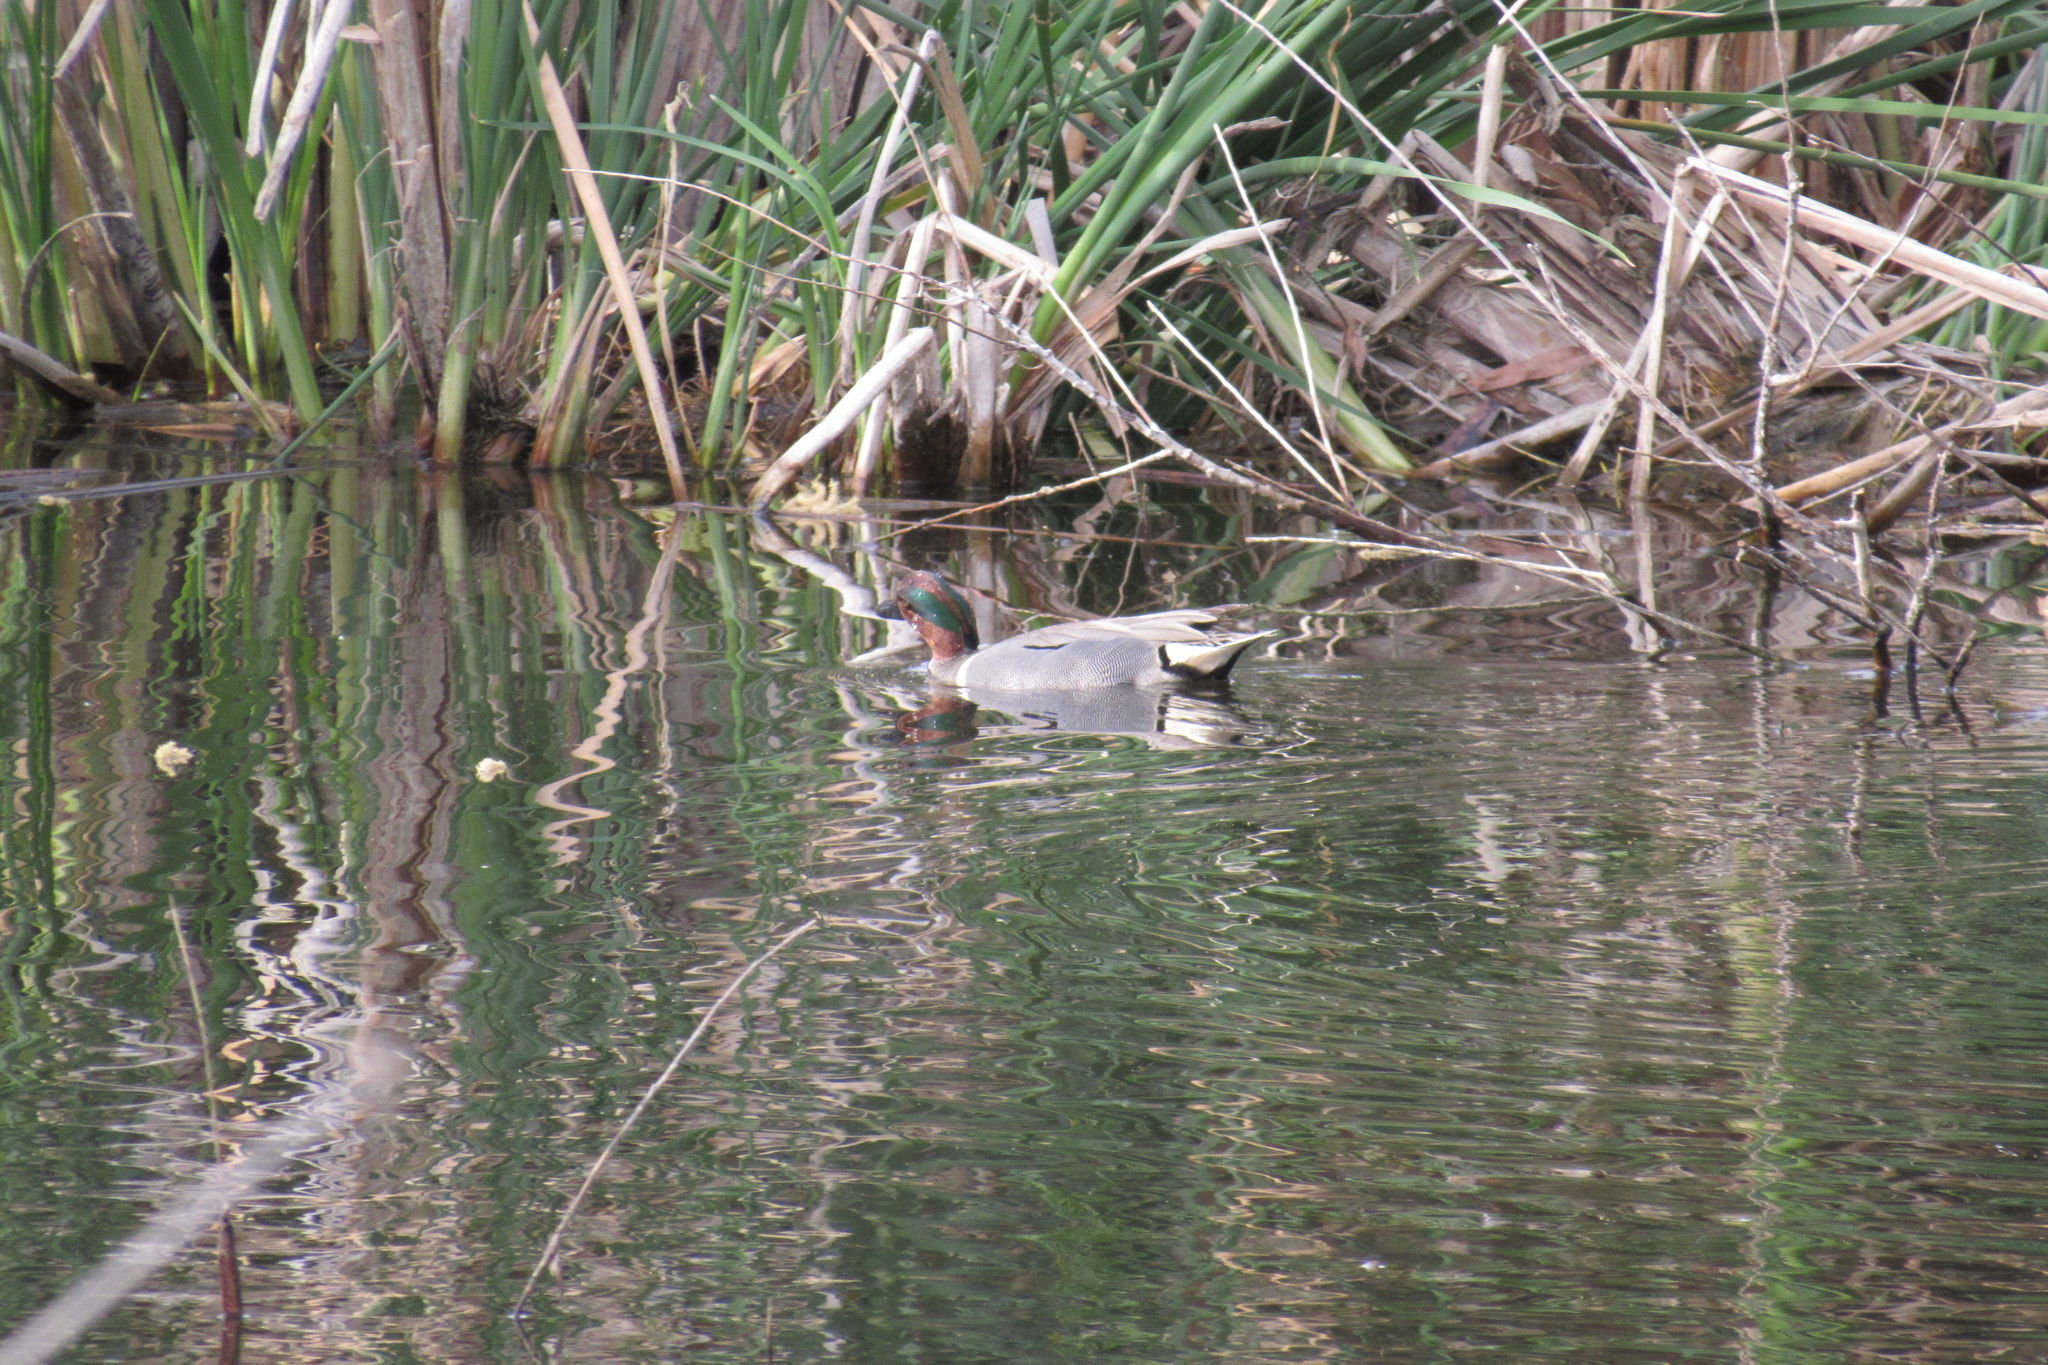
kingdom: Animalia
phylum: Chordata
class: Aves
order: Anseriformes
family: Anatidae
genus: Anas
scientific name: Anas crecca
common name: Eurasian teal
